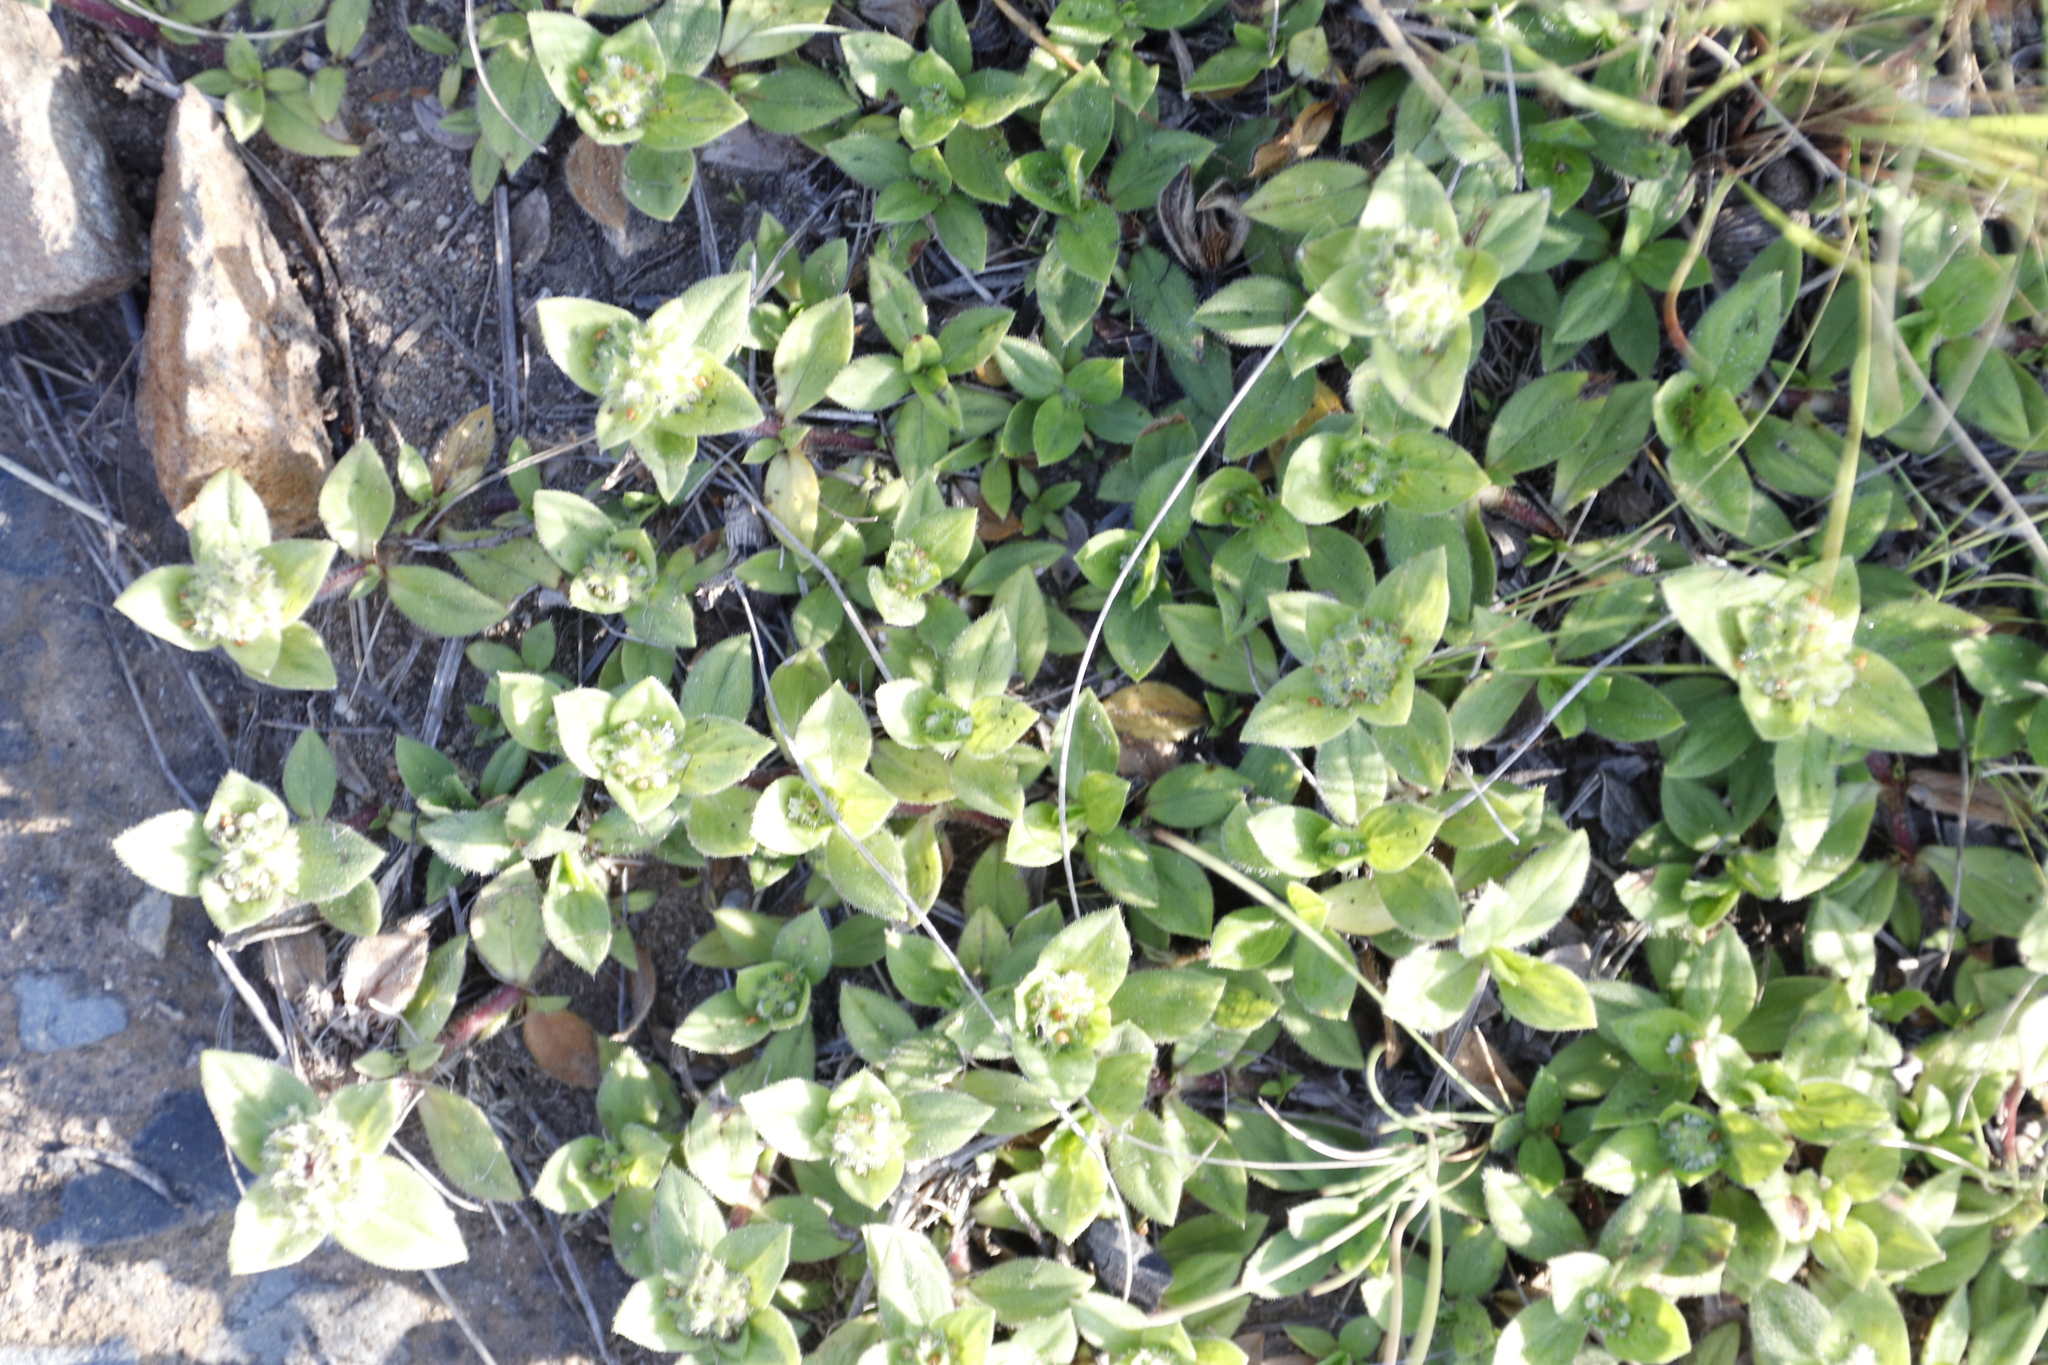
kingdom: Plantae
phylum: Tracheophyta
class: Magnoliopsida
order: Gentianales
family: Rubiaceae
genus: Richardia
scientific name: Richardia brasiliensis
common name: Tropical mexican clover
